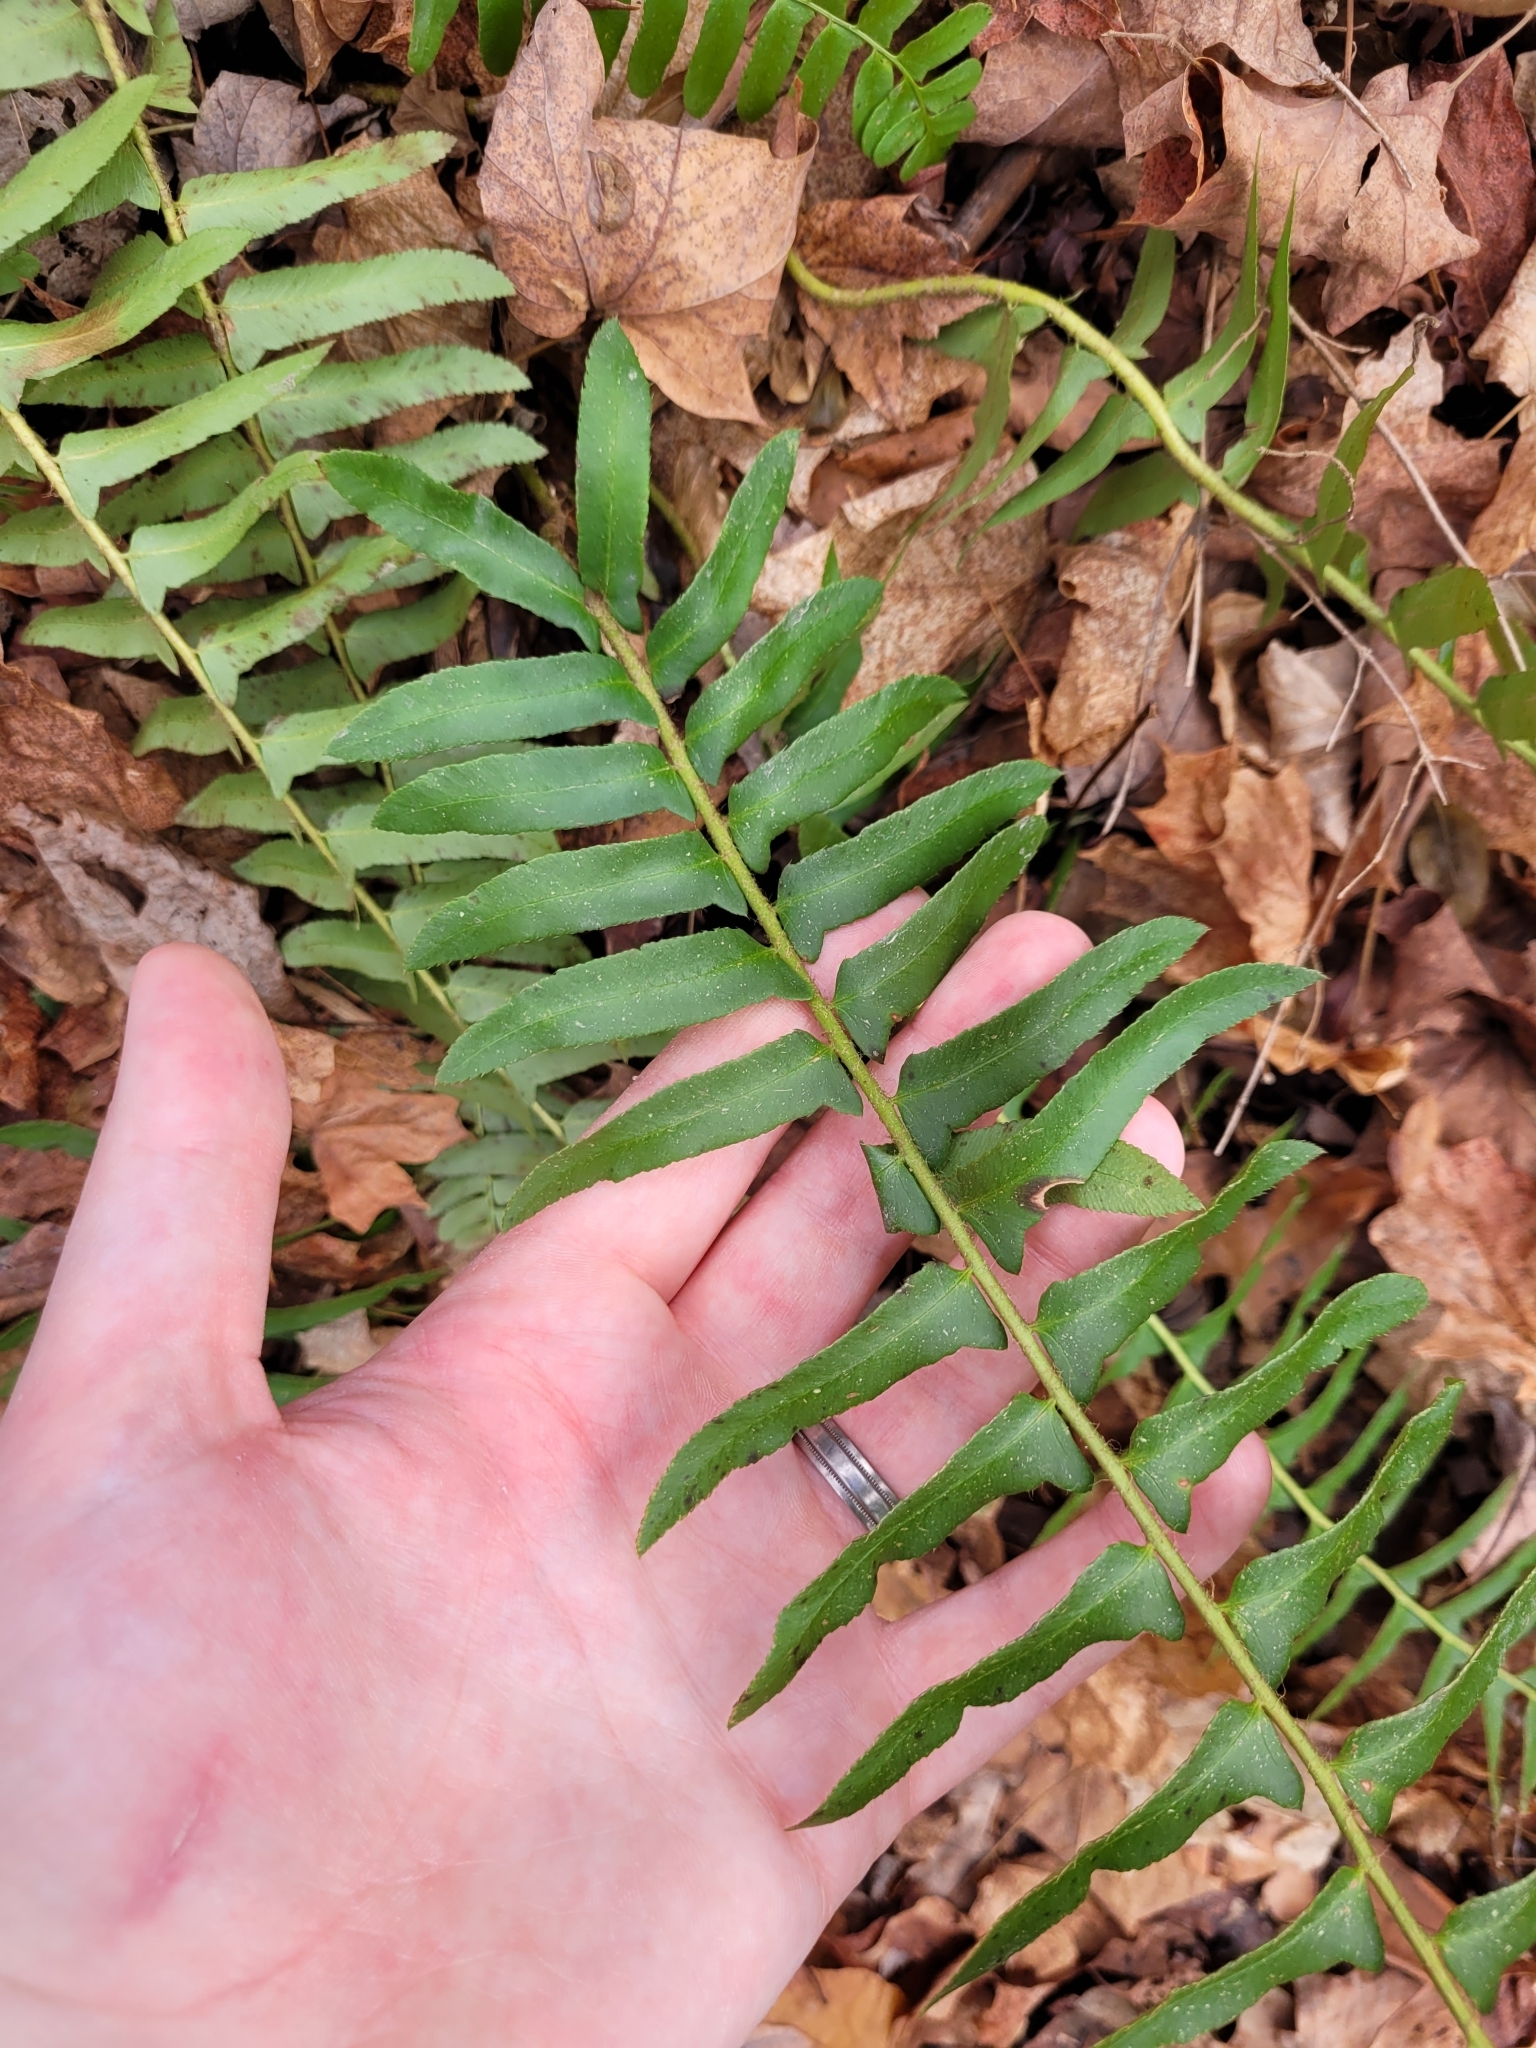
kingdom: Plantae
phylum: Tracheophyta
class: Polypodiopsida
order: Polypodiales
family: Dryopteridaceae
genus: Polystichum
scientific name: Polystichum acrostichoides
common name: Christmas fern
